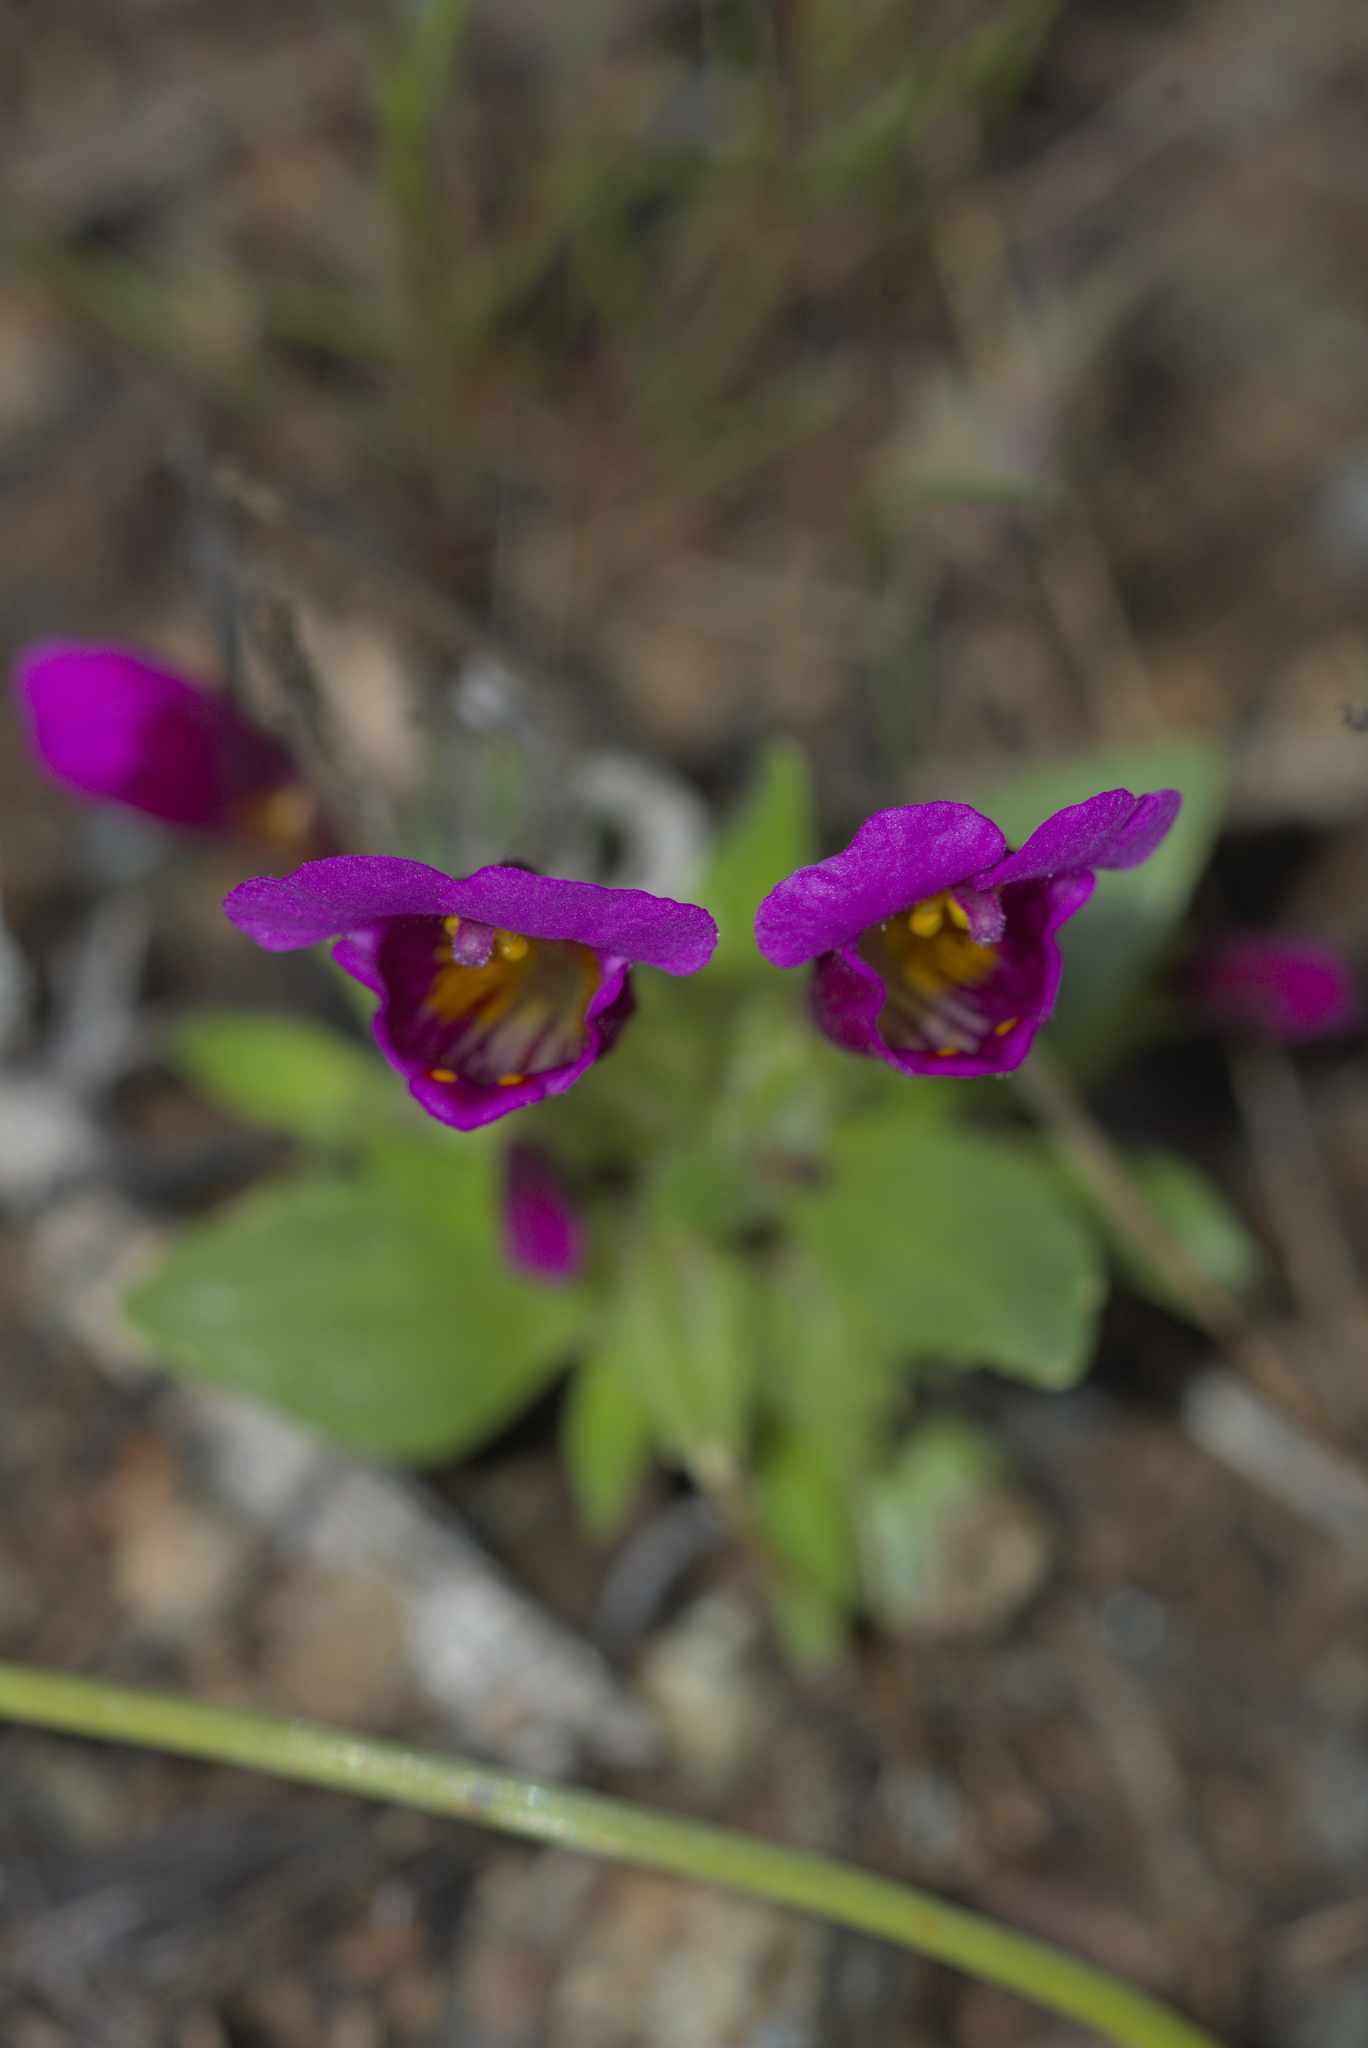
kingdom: Plantae
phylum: Tracheophyta
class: Magnoliopsida
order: Lamiales
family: Phrymaceae
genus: Diplacus
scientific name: Diplacus douglasii
